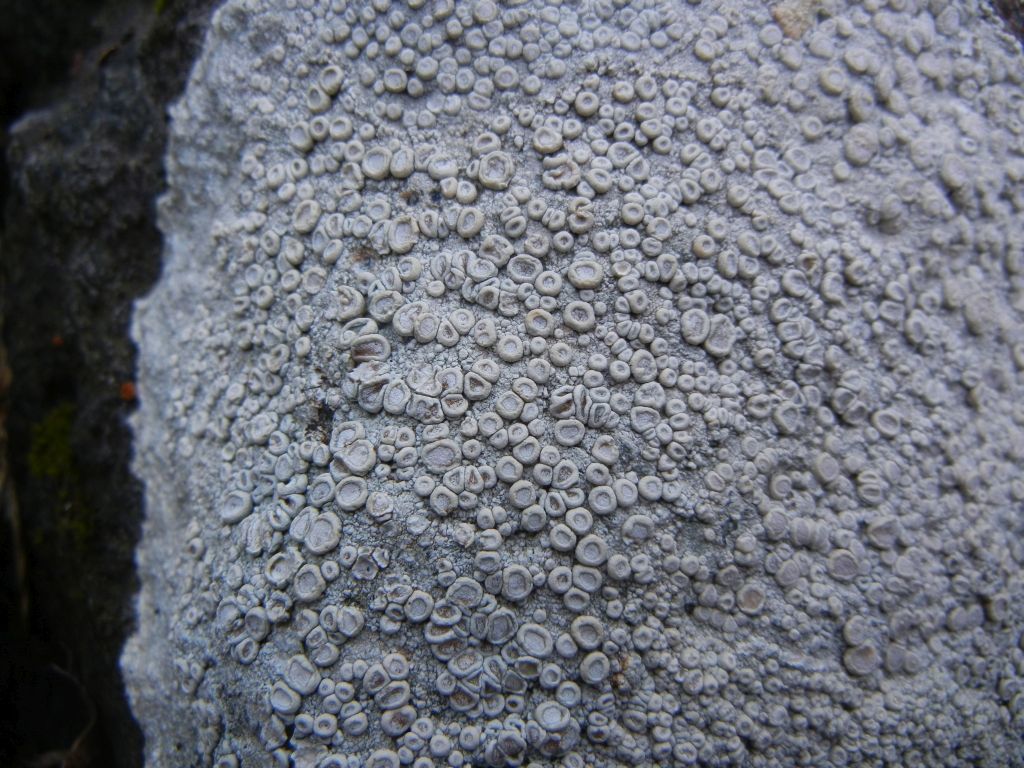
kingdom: Fungi
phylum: Ascomycota
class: Lecanoromycetes
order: Pertusariales
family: Ochrolechiaceae
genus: Ochrolechia
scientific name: Ochrolechia parella
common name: Crab's eye lichen
